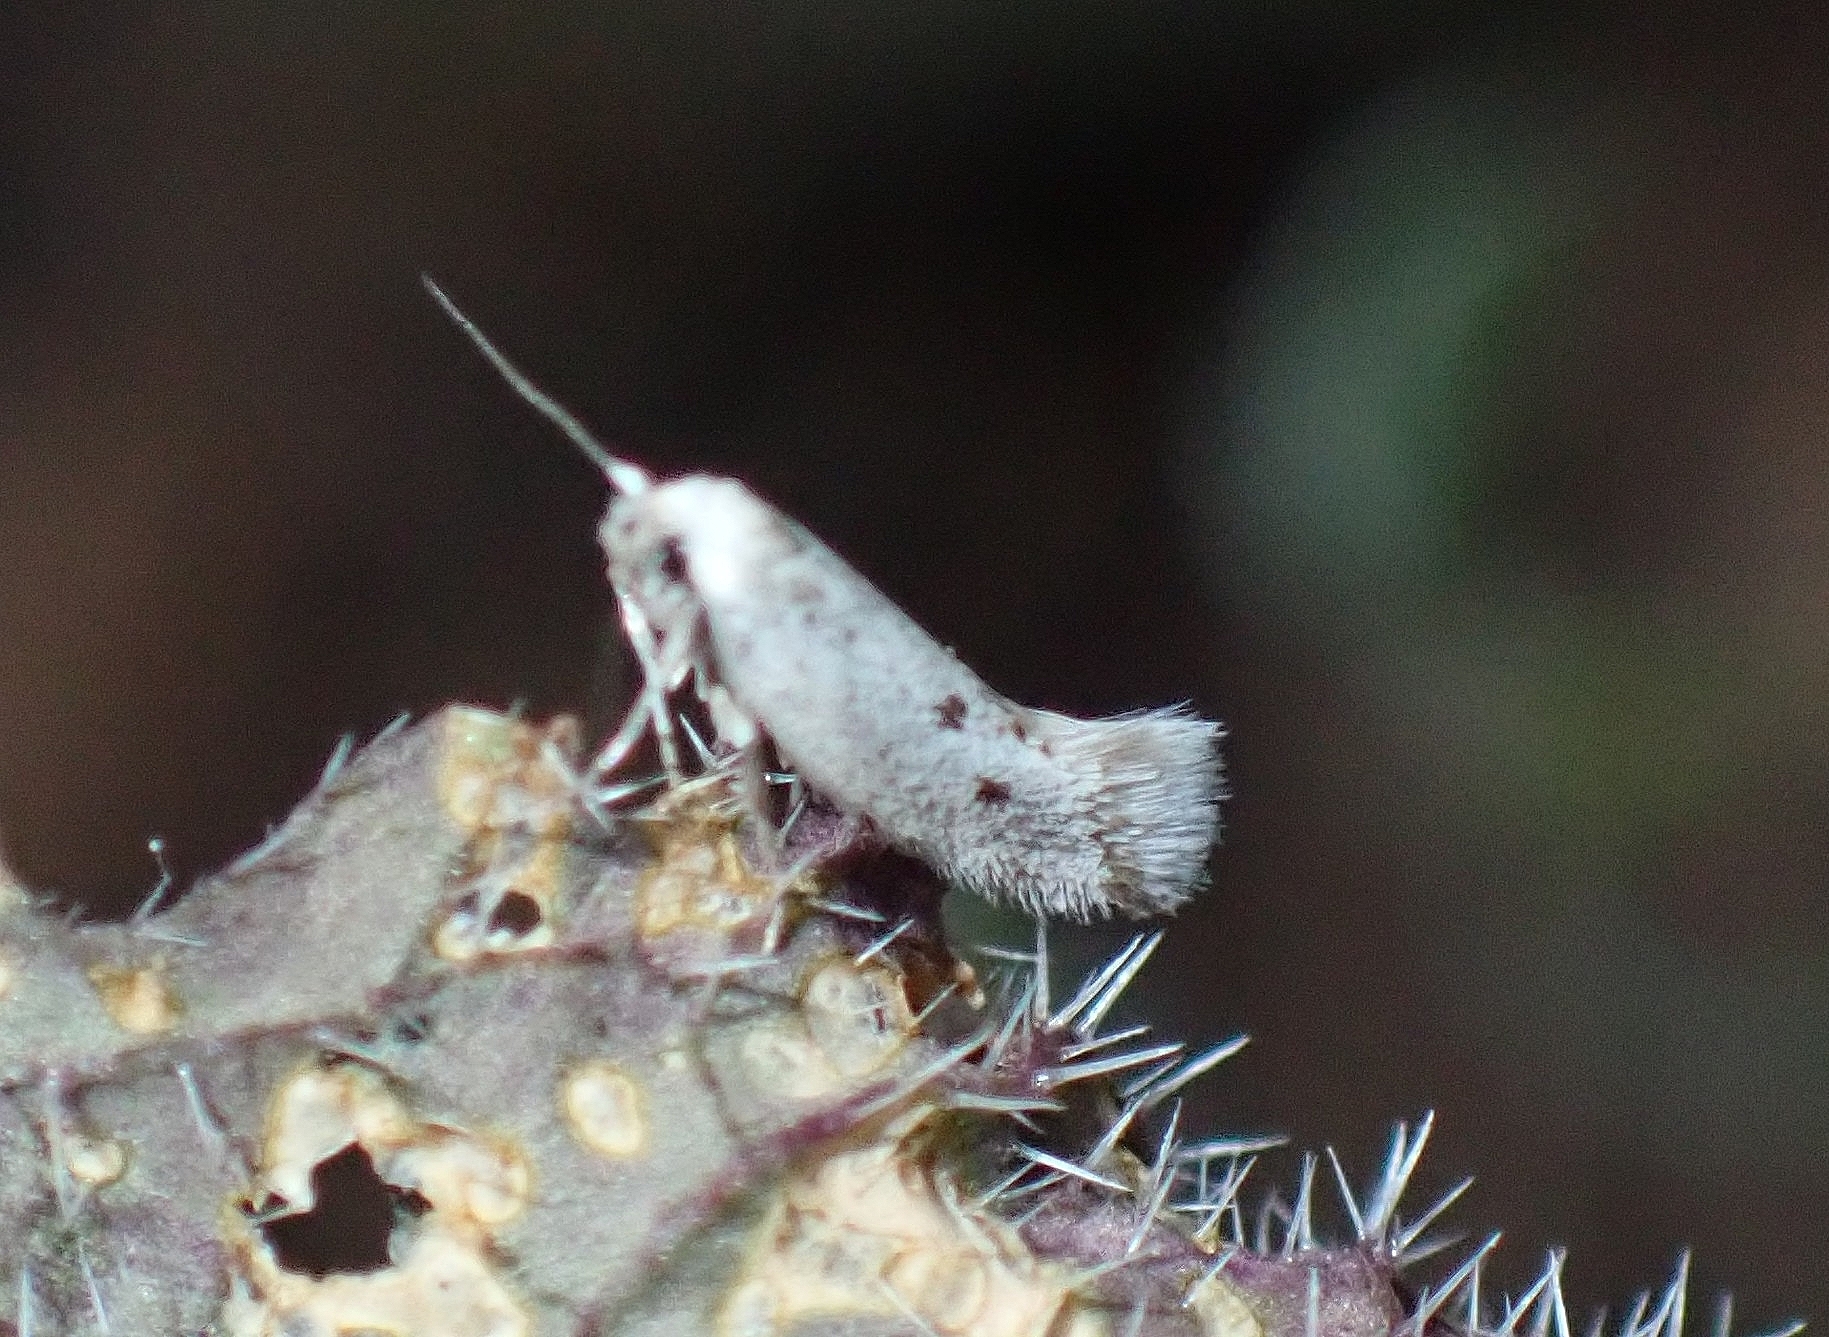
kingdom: Animalia
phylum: Arthropoda
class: Insecta
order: Lepidoptera
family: Elachistidae
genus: Perittia
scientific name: Perittia echiella
